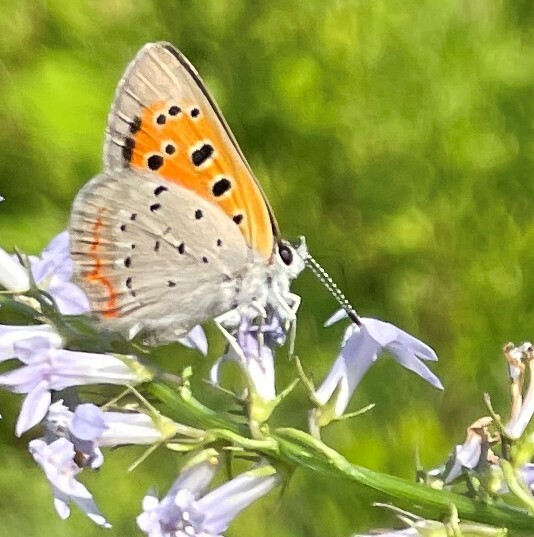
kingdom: Animalia
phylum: Arthropoda
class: Insecta
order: Lepidoptera
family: Lycaenidae
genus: Lycaena
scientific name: Lycaena hypophlaeas
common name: American copper
